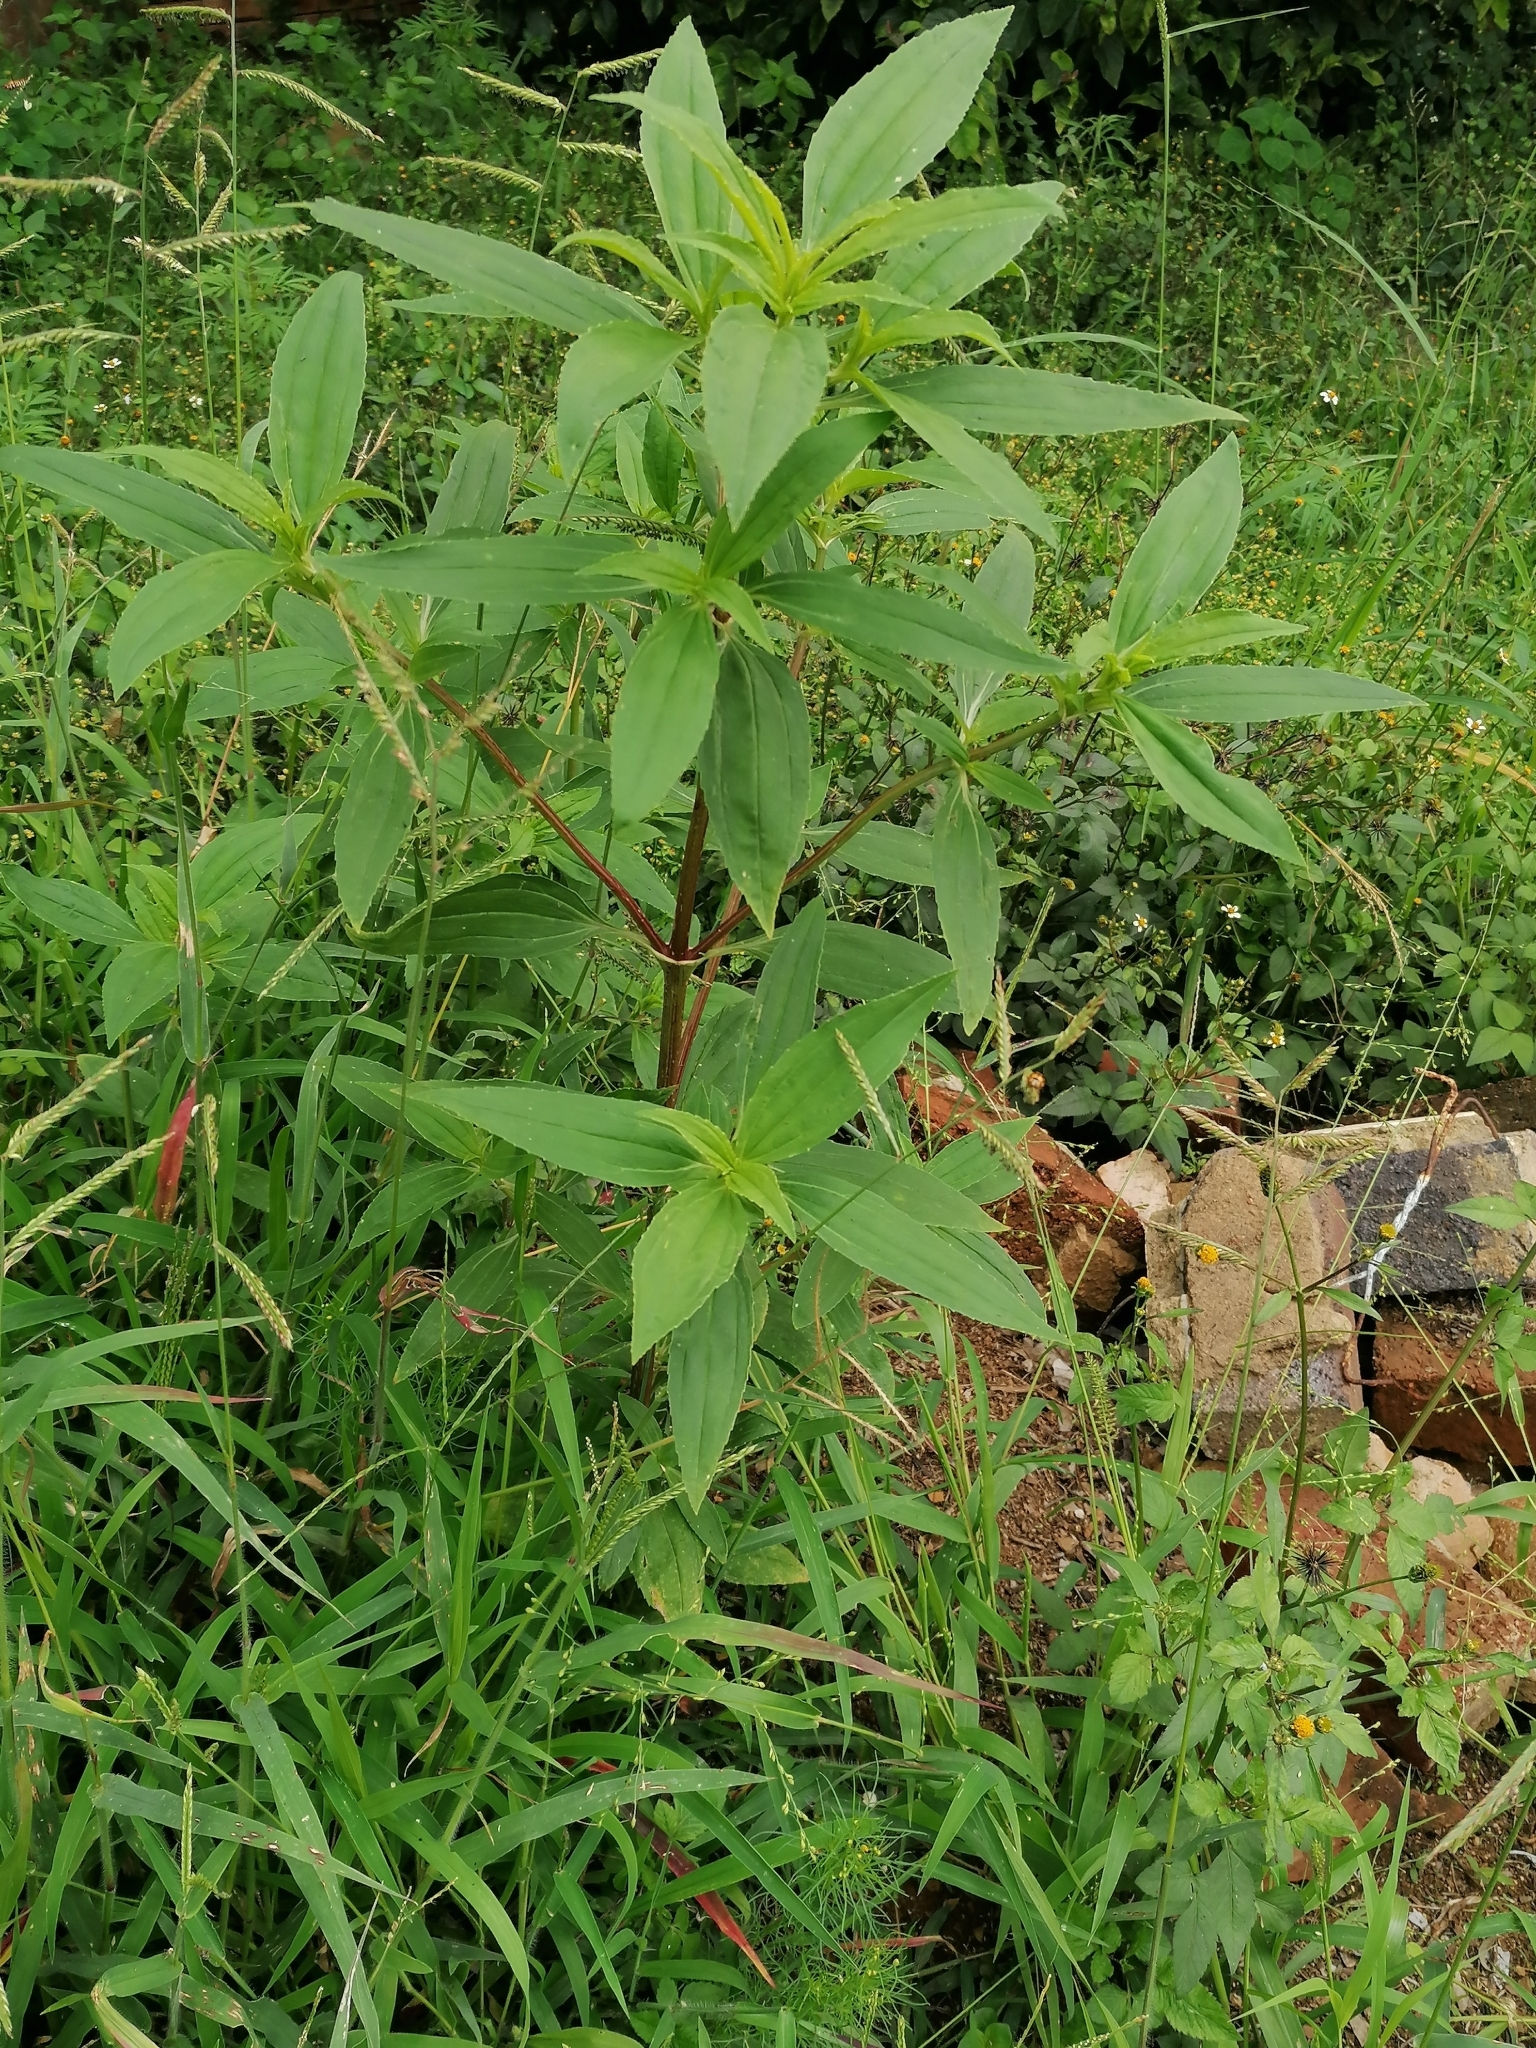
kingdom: Plantae
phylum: Tracheophyta
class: Magnoliopsida
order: Asterales
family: Asteraceae
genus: Flaveria
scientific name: Flaveria bidentis
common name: Coastal plain yellowtops
